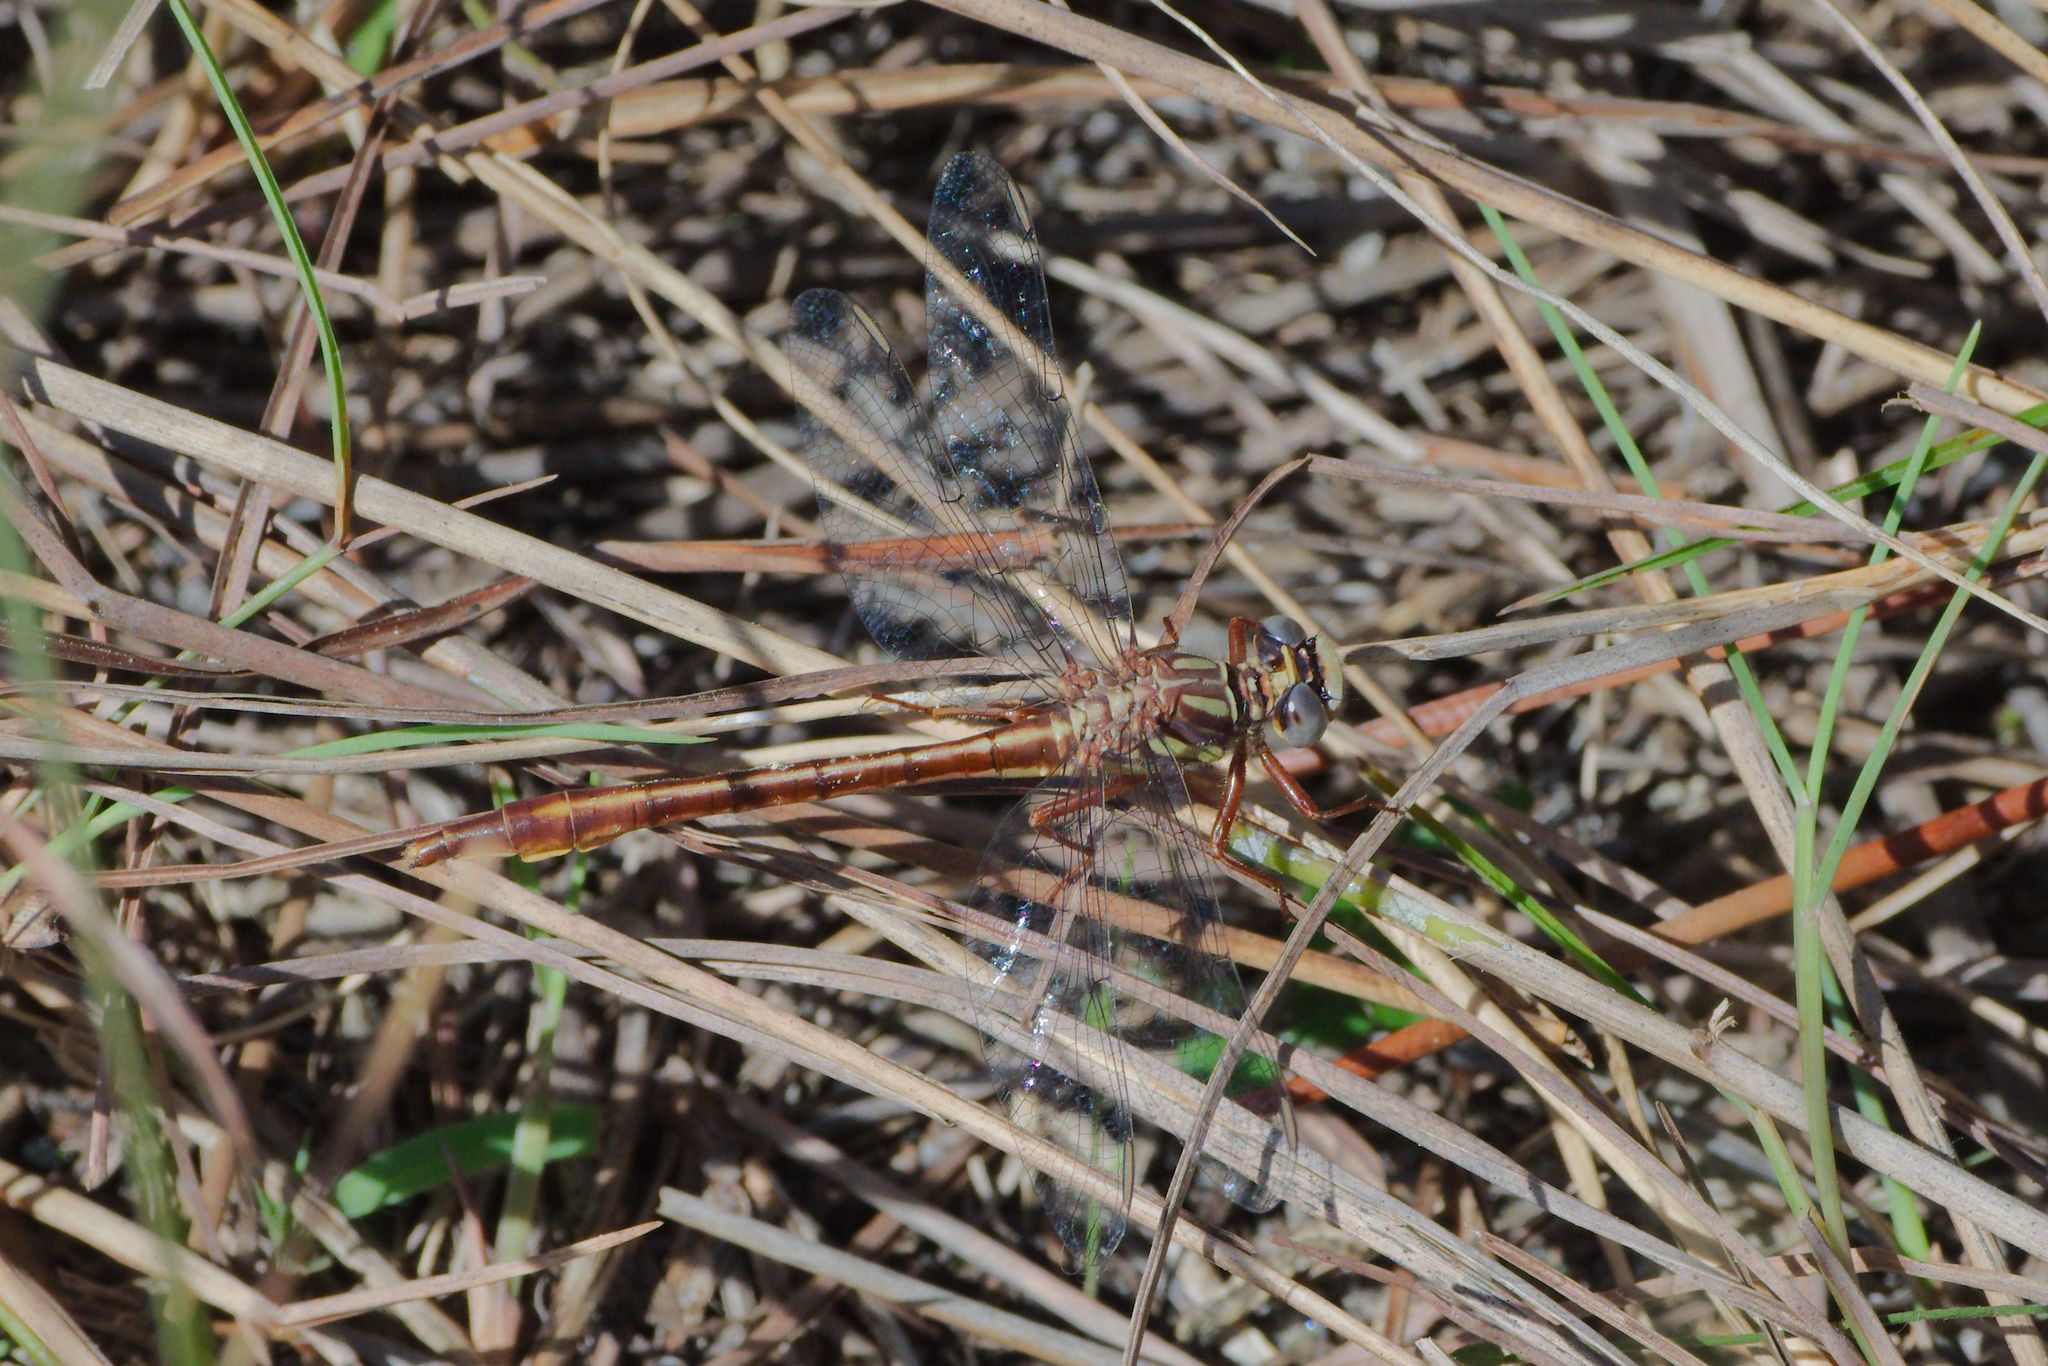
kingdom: Animalia
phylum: Arthropoda
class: Insecta
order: Odonata
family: Gomphidae
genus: Phanogomphus
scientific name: Phanogomphus cavillaris
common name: Sandhill clubtail
